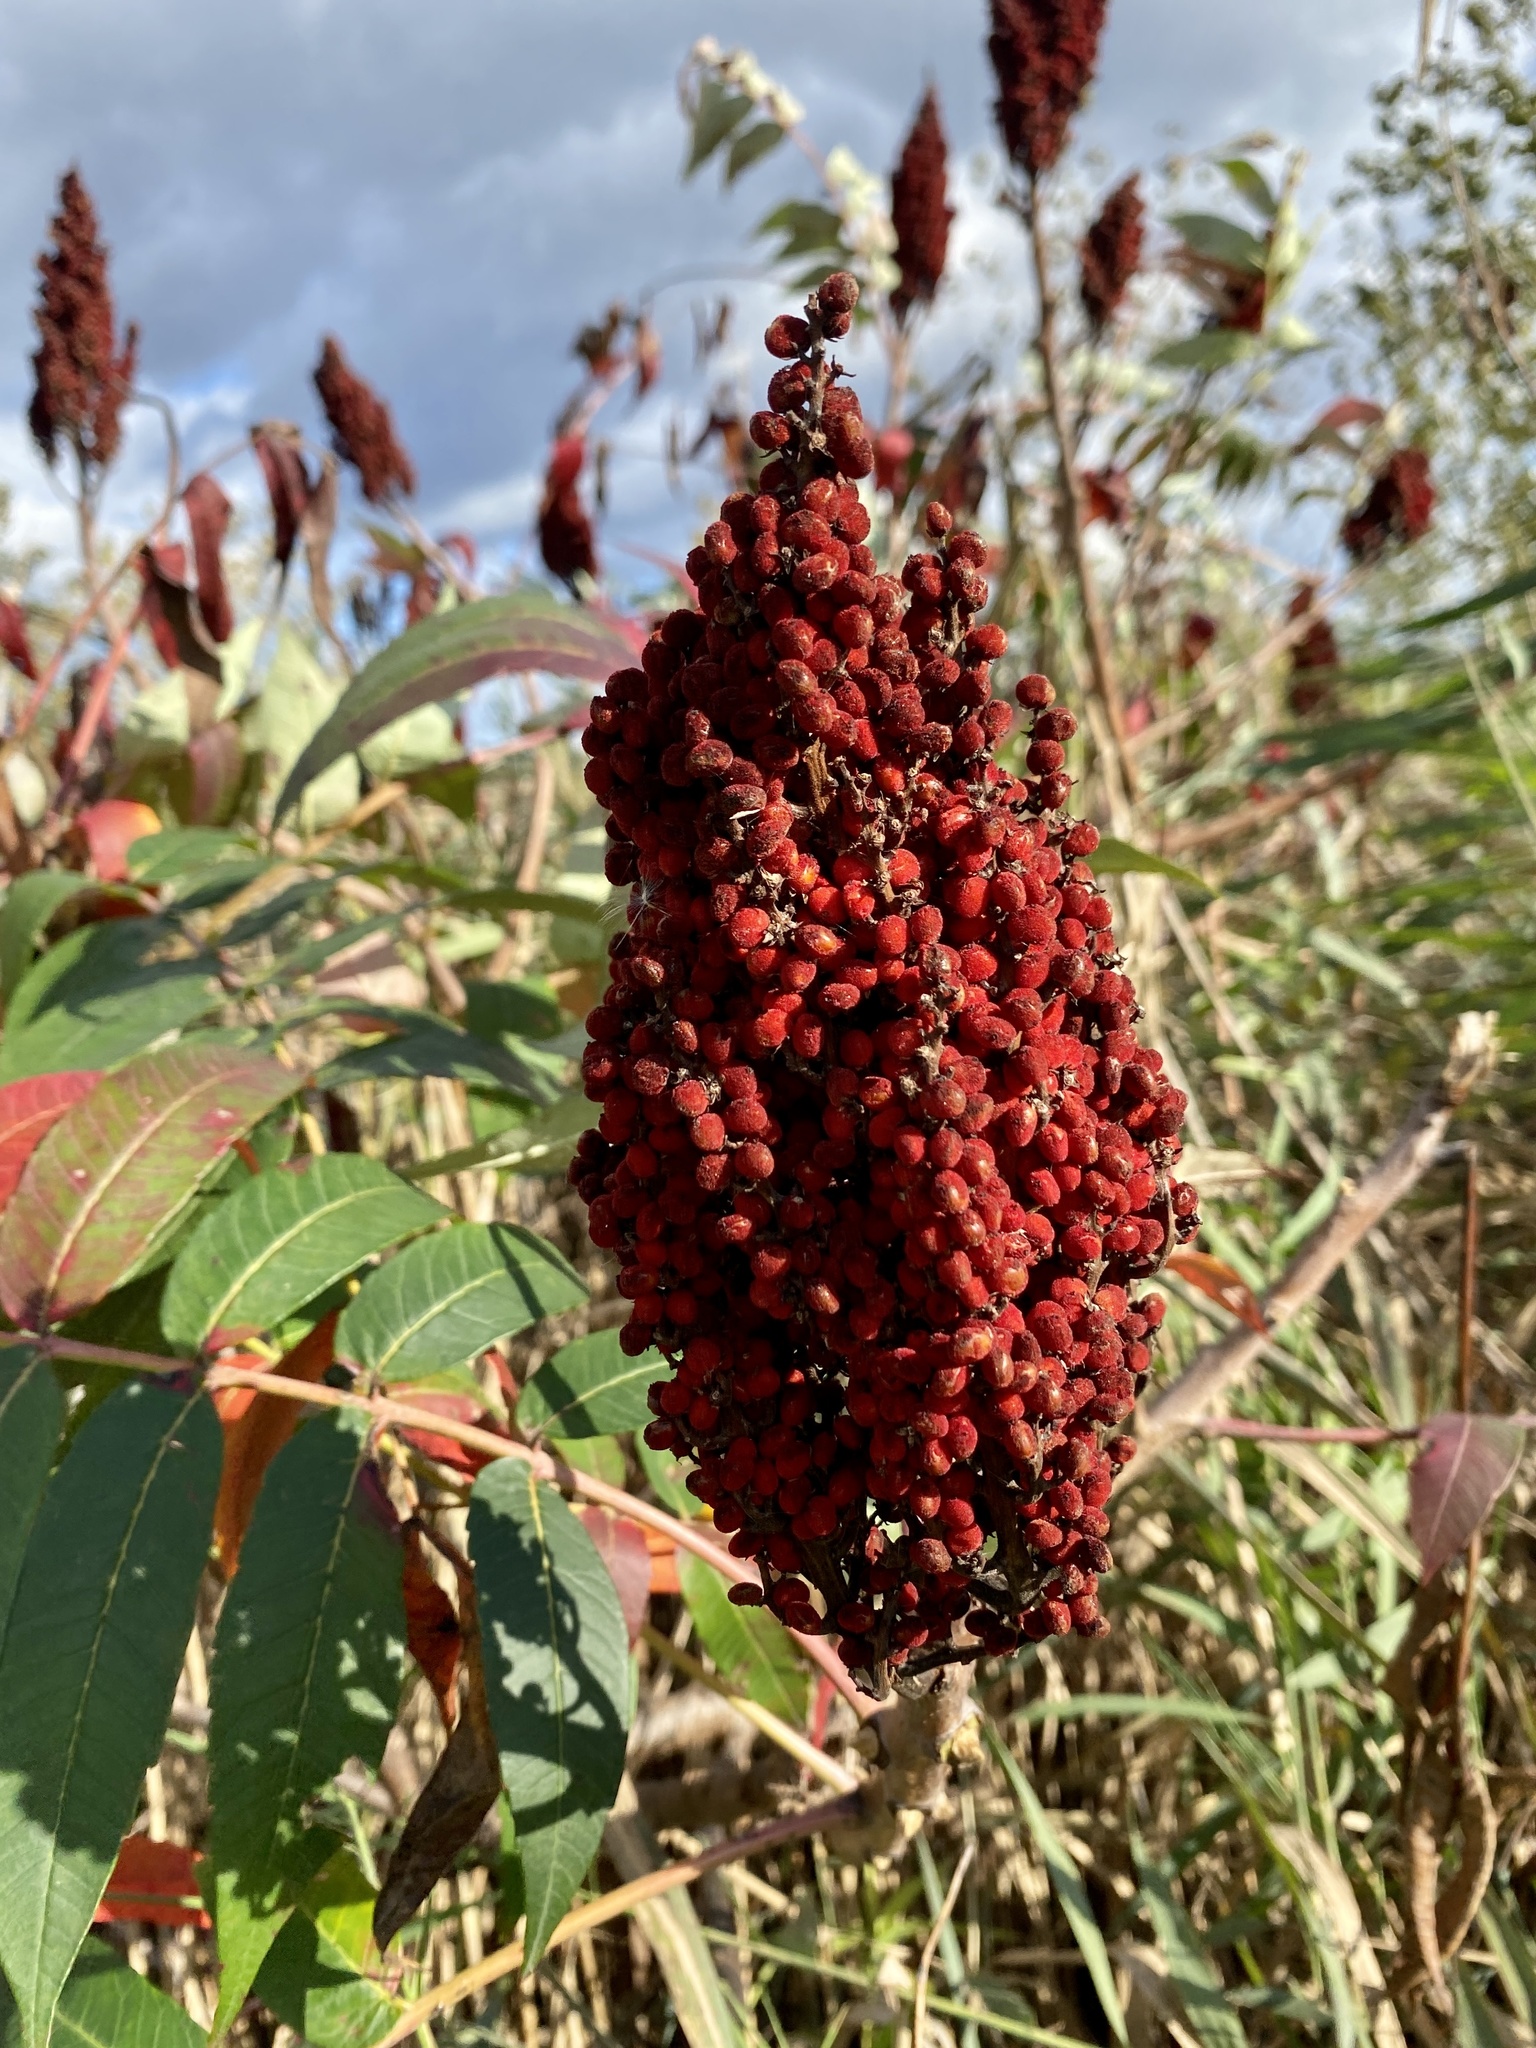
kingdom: Plantae
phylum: Tracheophyta
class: Magnoliopsida
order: Sapindales
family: Anacardiaceae
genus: Rhus
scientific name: Rhus glabra
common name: Scarlet sumac
